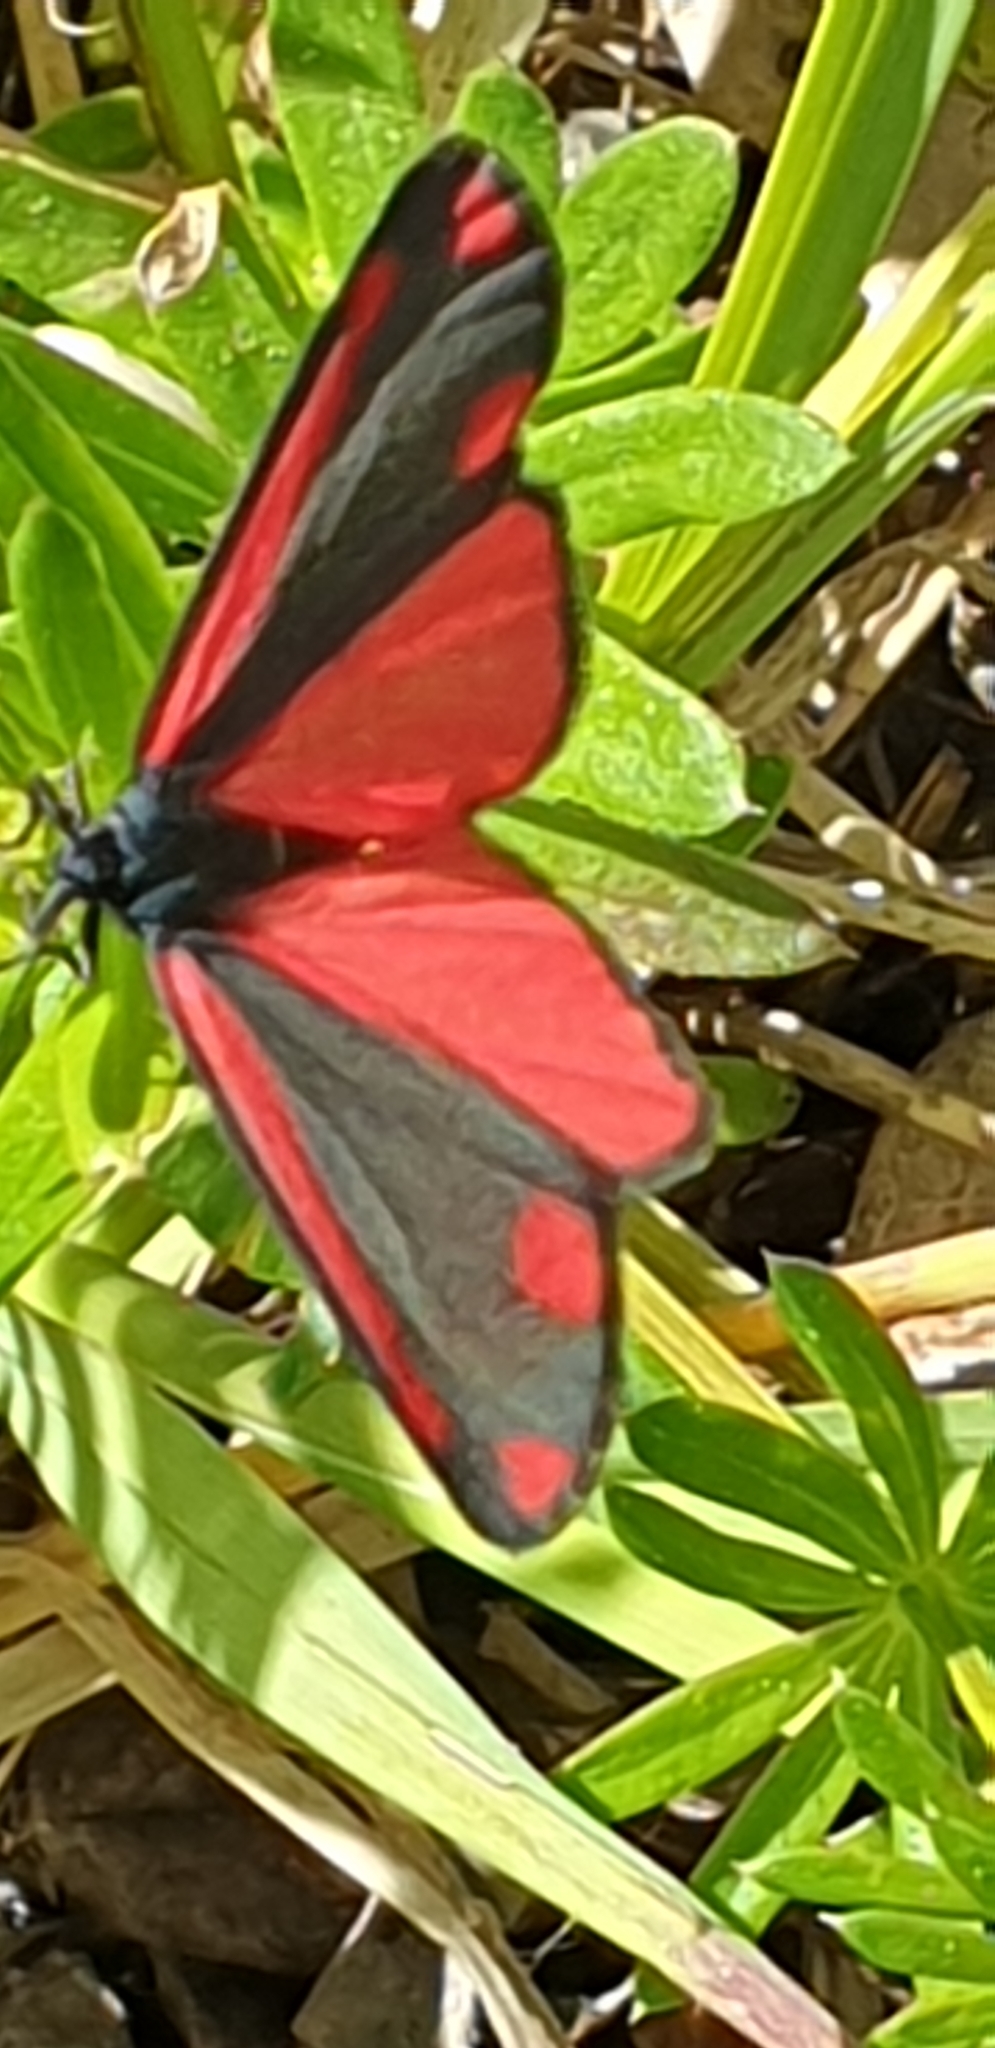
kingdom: Animalia
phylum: Arthropoda
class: Insecta
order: Lepidoptera
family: Erebidae
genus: Tyria
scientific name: Tyria jacobaeae
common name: Cinnabar
